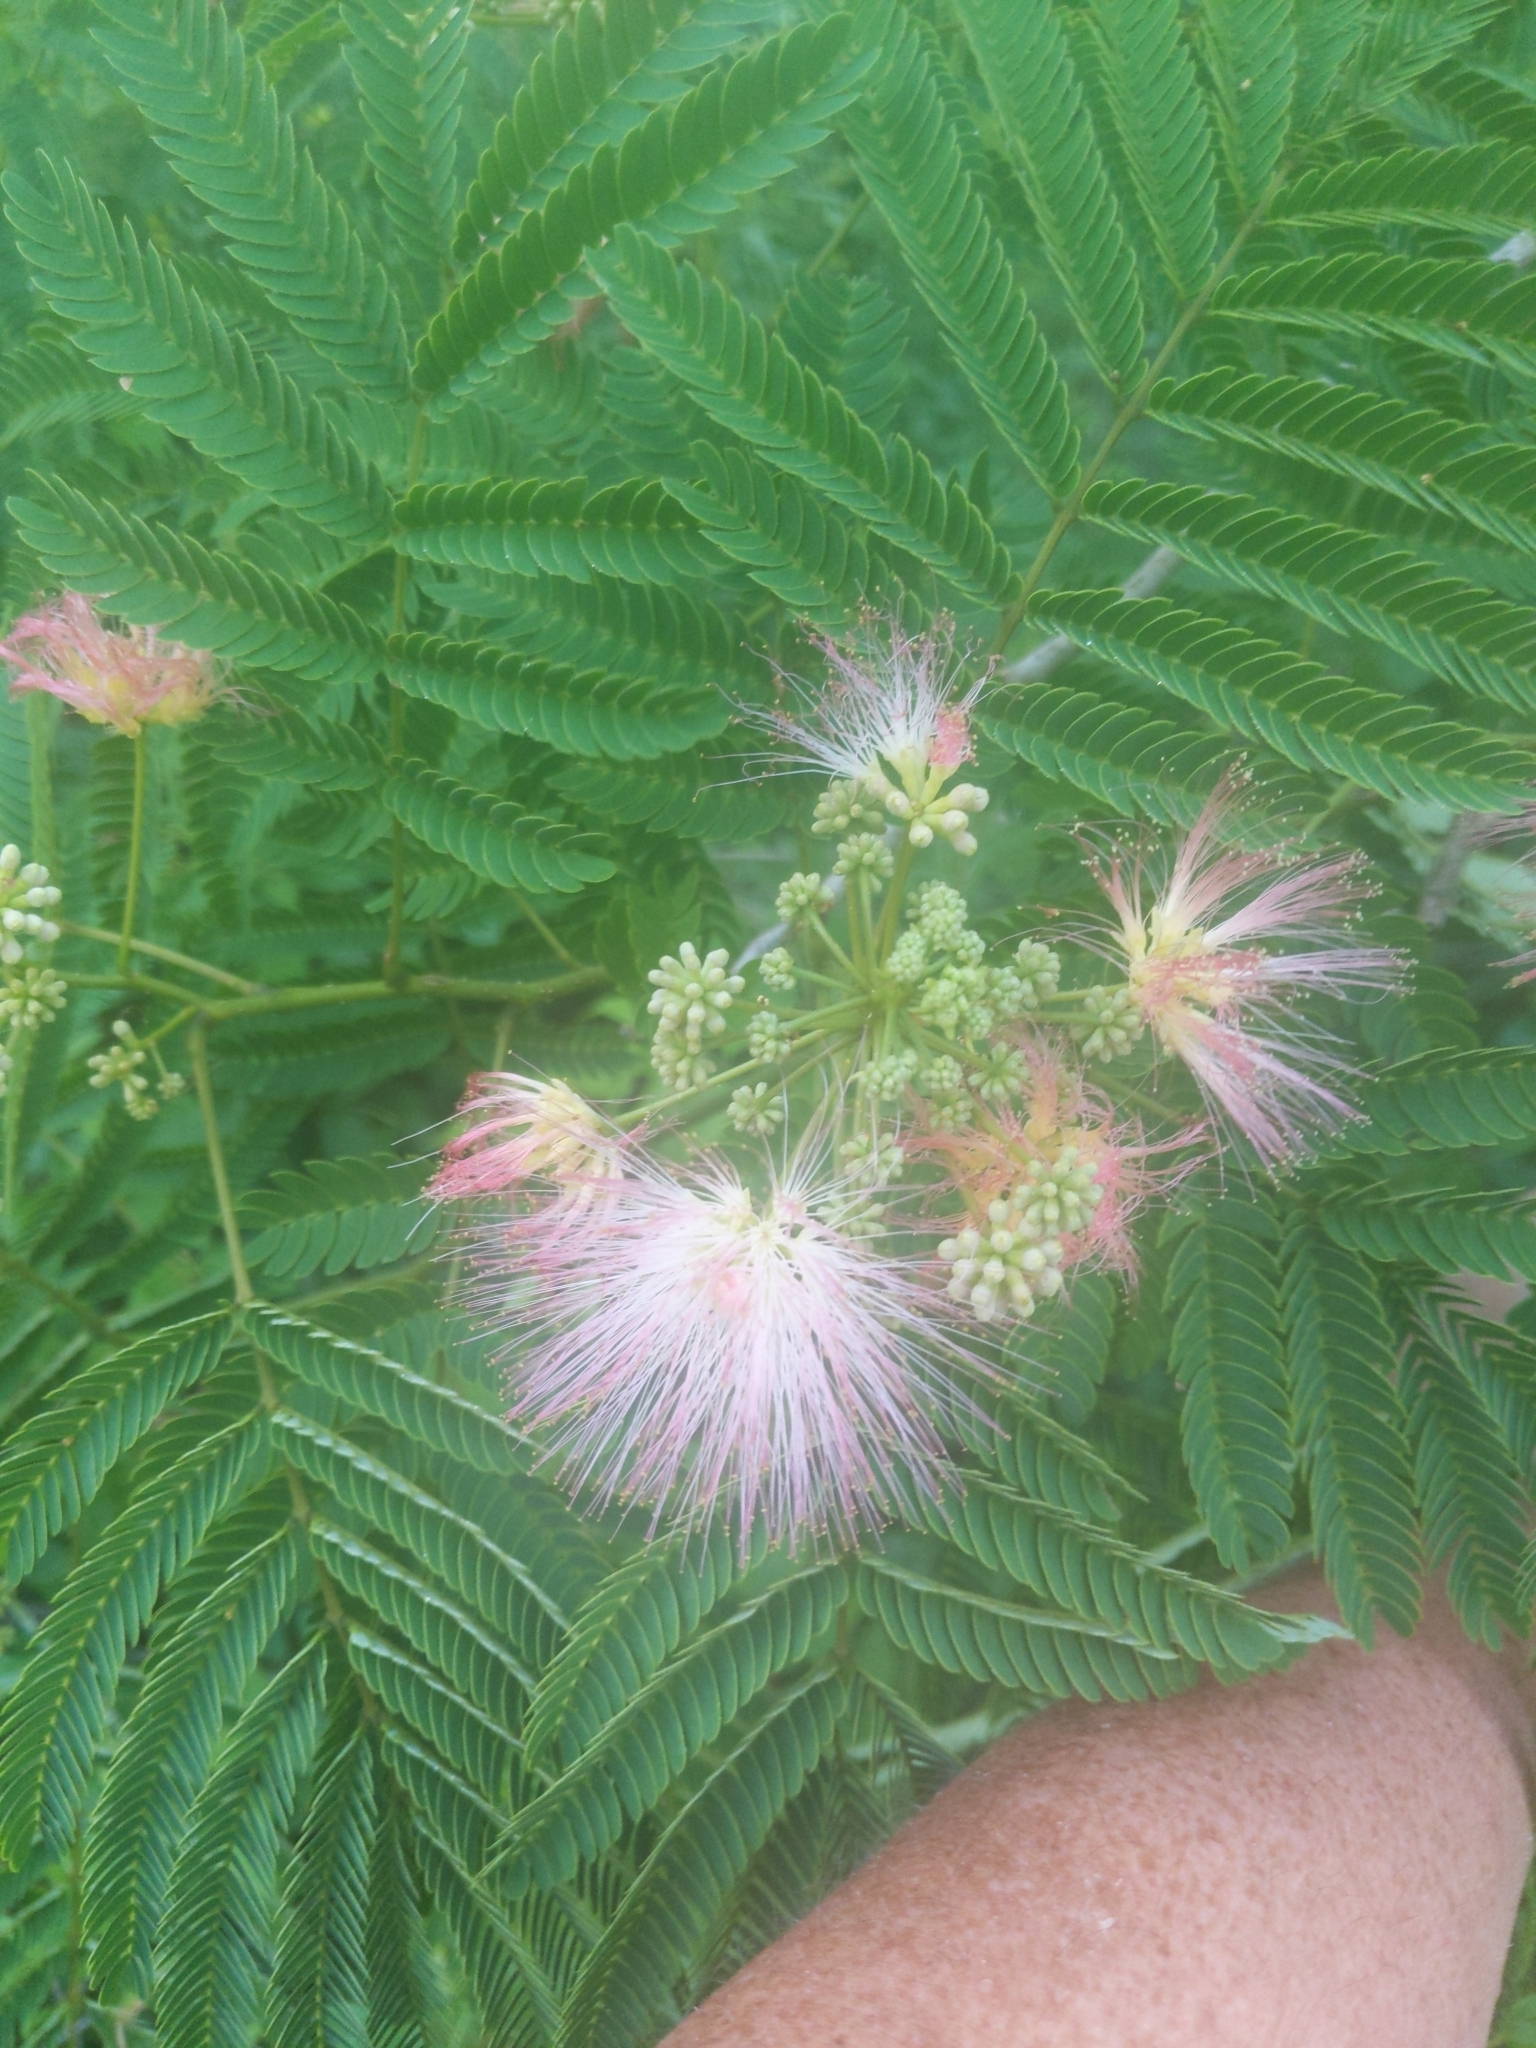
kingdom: Plantae
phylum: Tracheophyta
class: Magnoliopsida
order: Fabales
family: Fabaceae
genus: Albizia
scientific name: Albizia julibrissin
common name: Silktree
